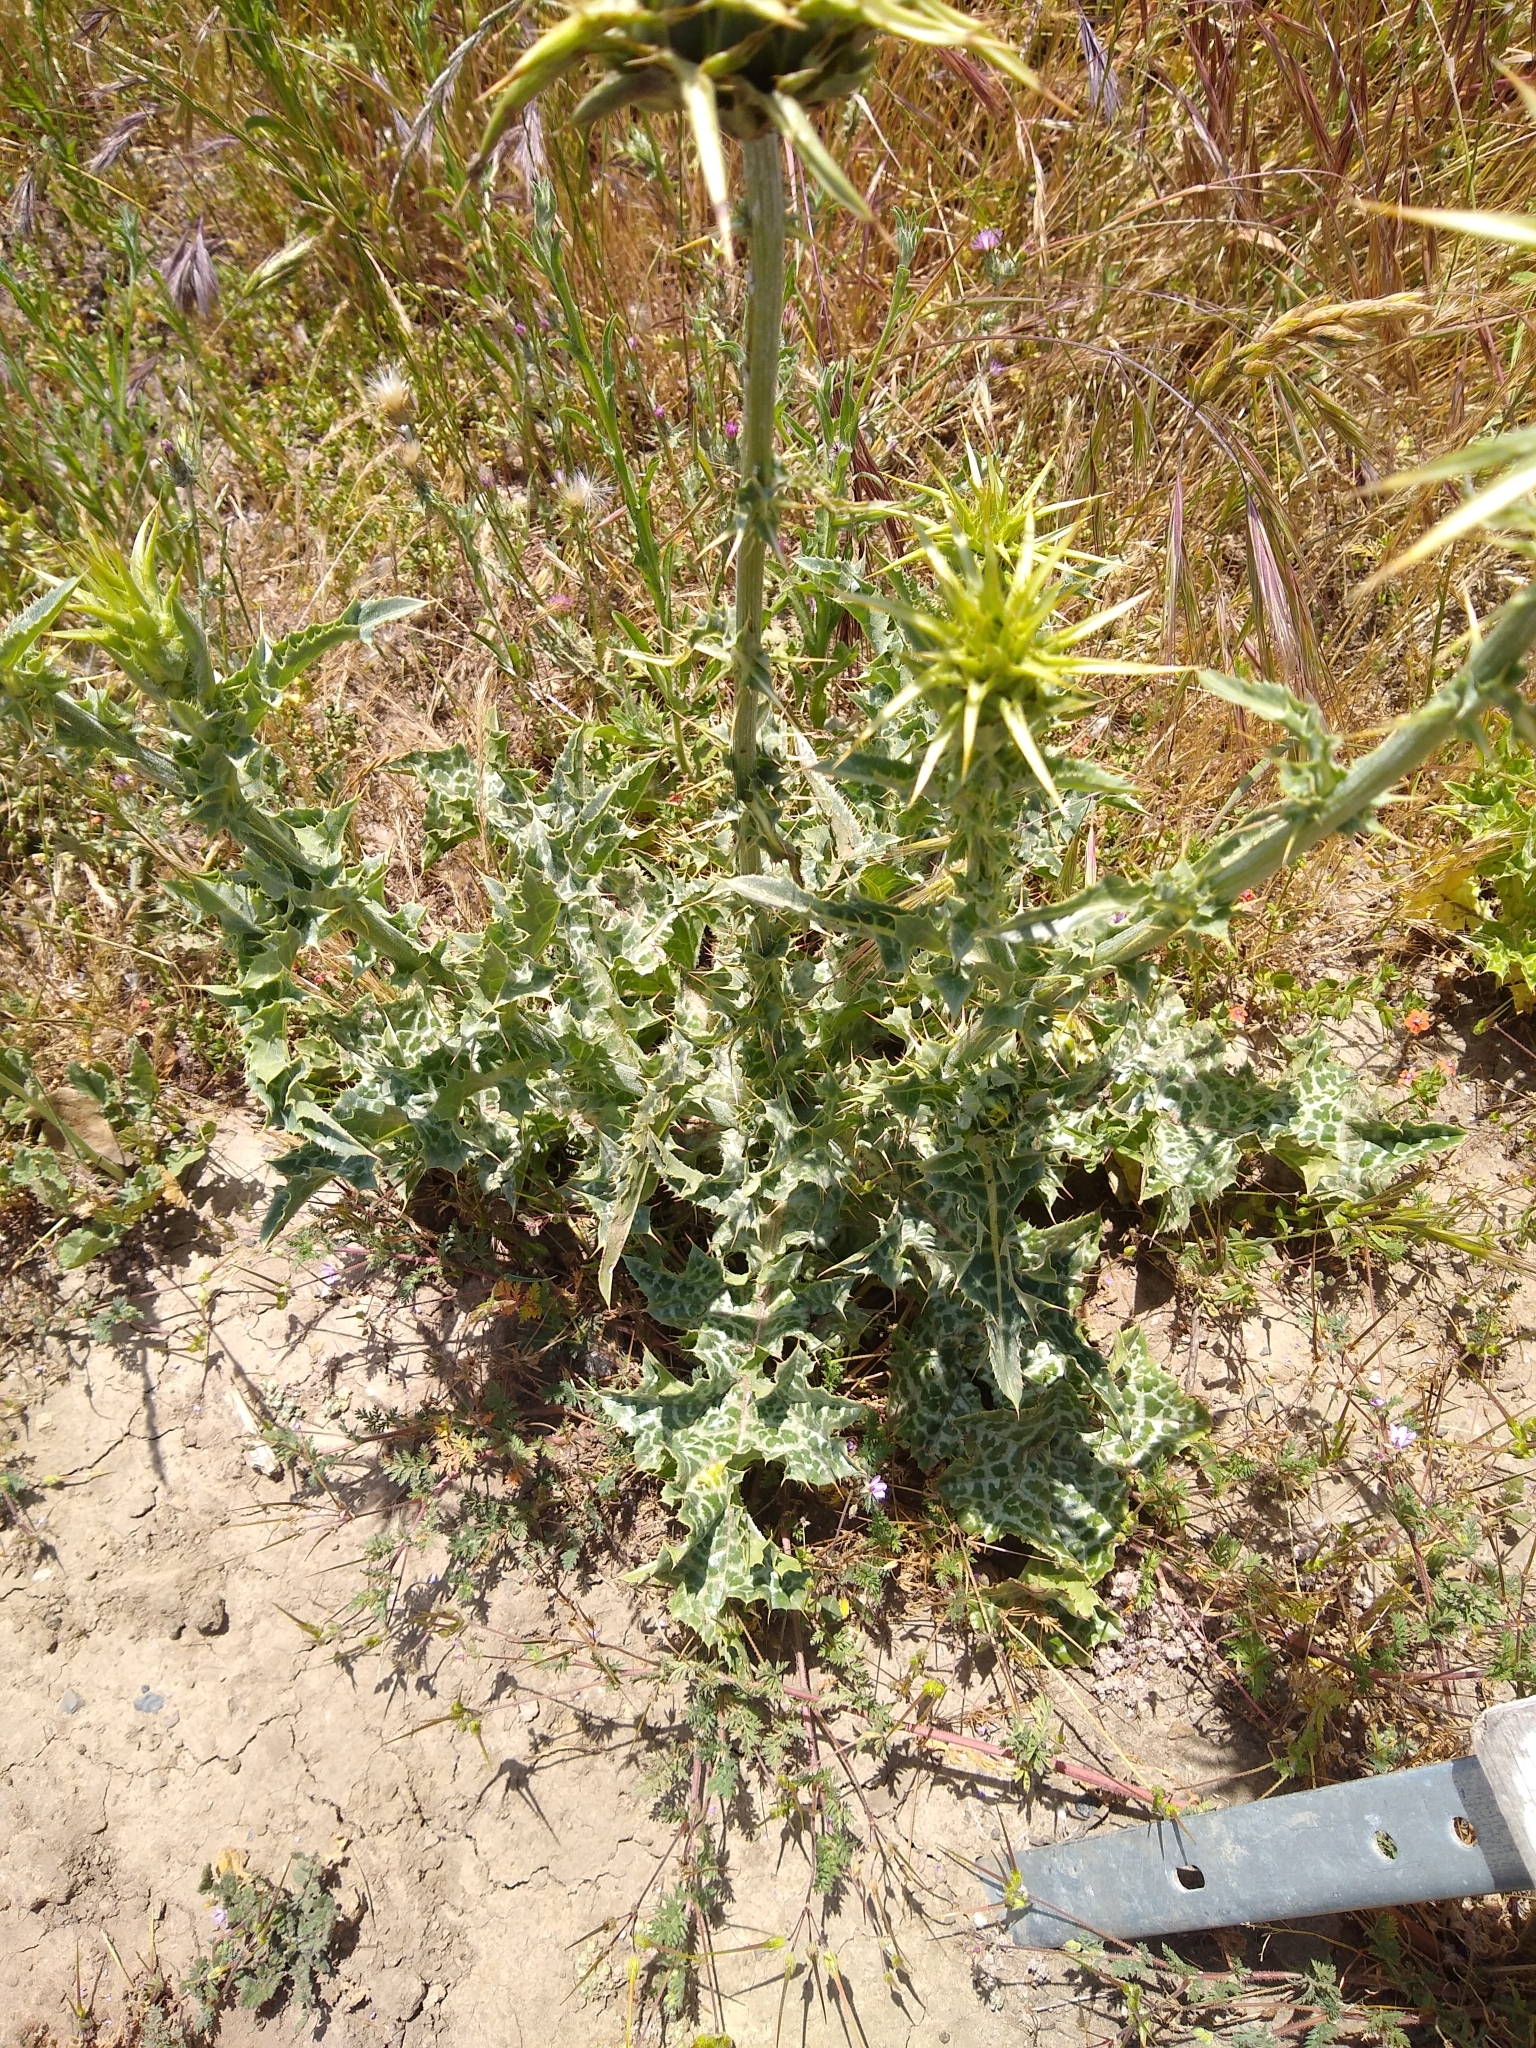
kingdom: Plantae
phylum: Tracheophyta
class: Magnoliopsida
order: Asterales
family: Asteraceae
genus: Silybum
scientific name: Silybum marianum
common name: Milk thistle
